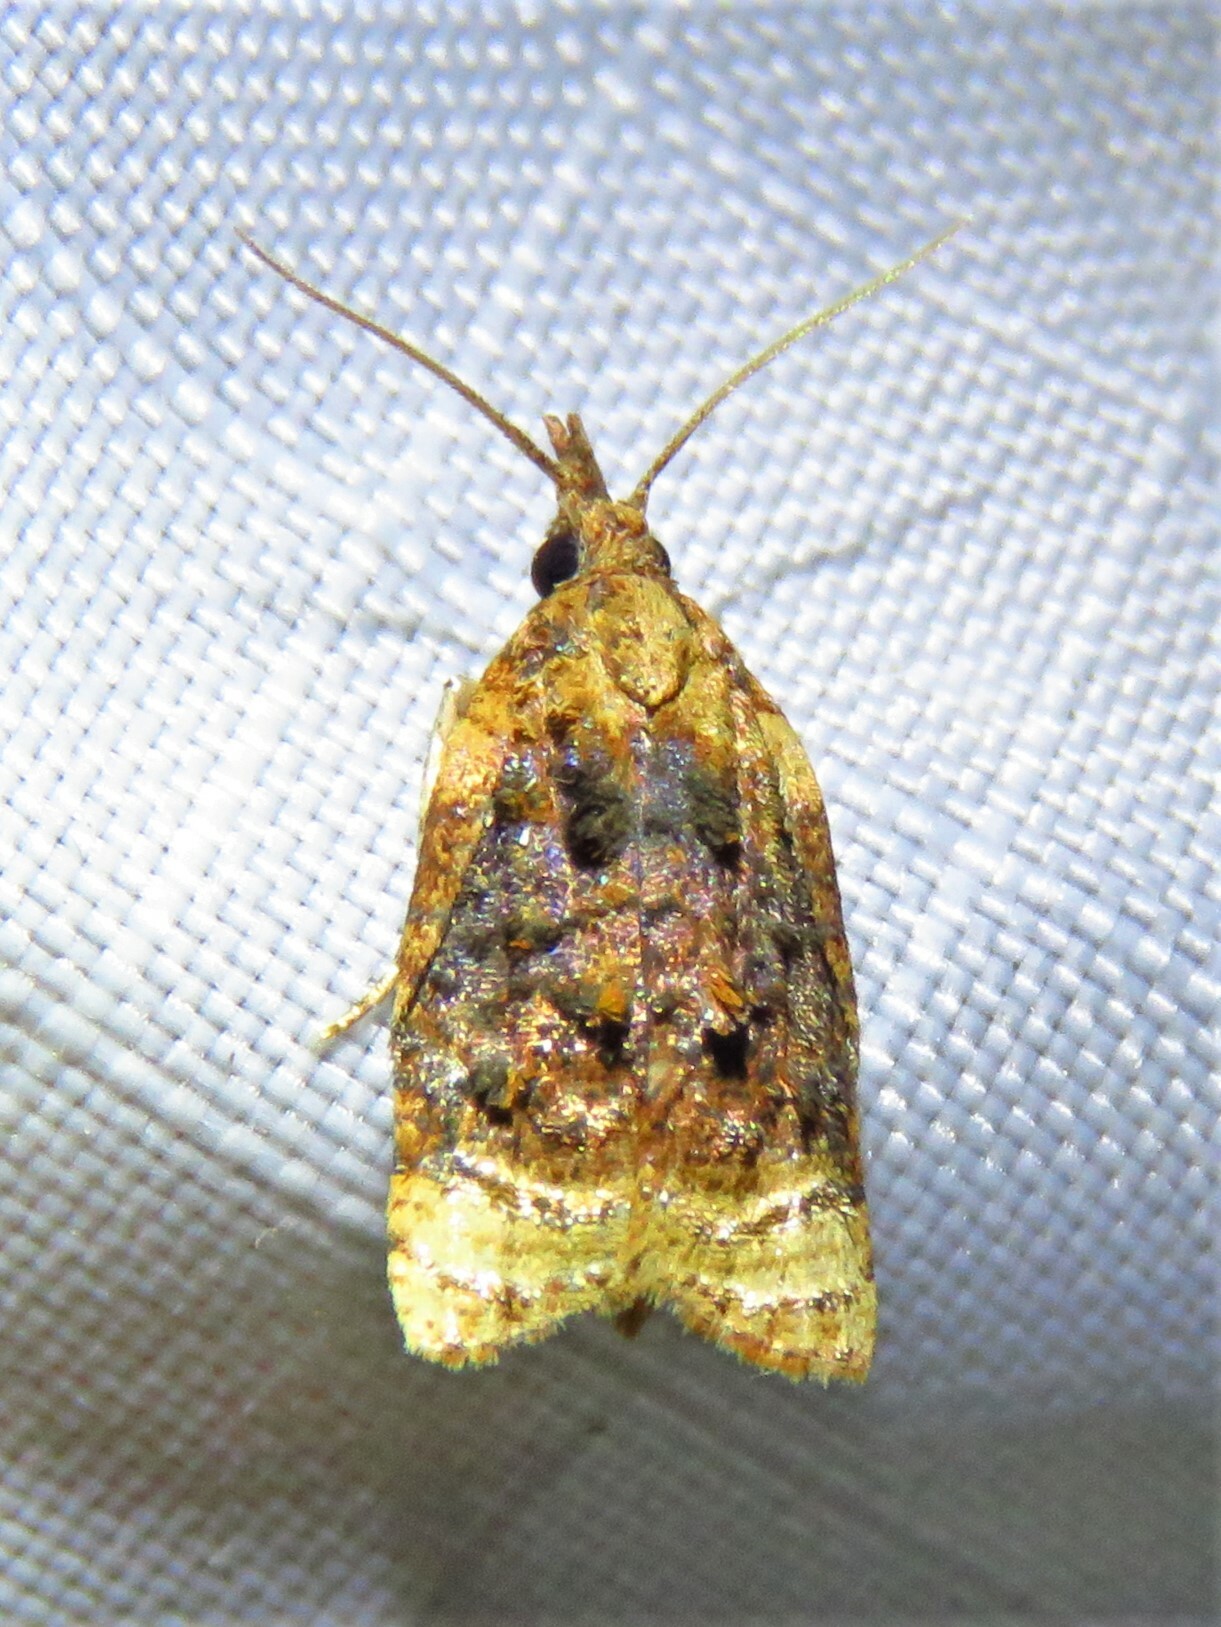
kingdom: Animalia
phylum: Arthropoda
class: Insecta
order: Lepidoptera
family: Tortricidae
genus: Platynota
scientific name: Platynota flavedana
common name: Black-shaded platynota moth
